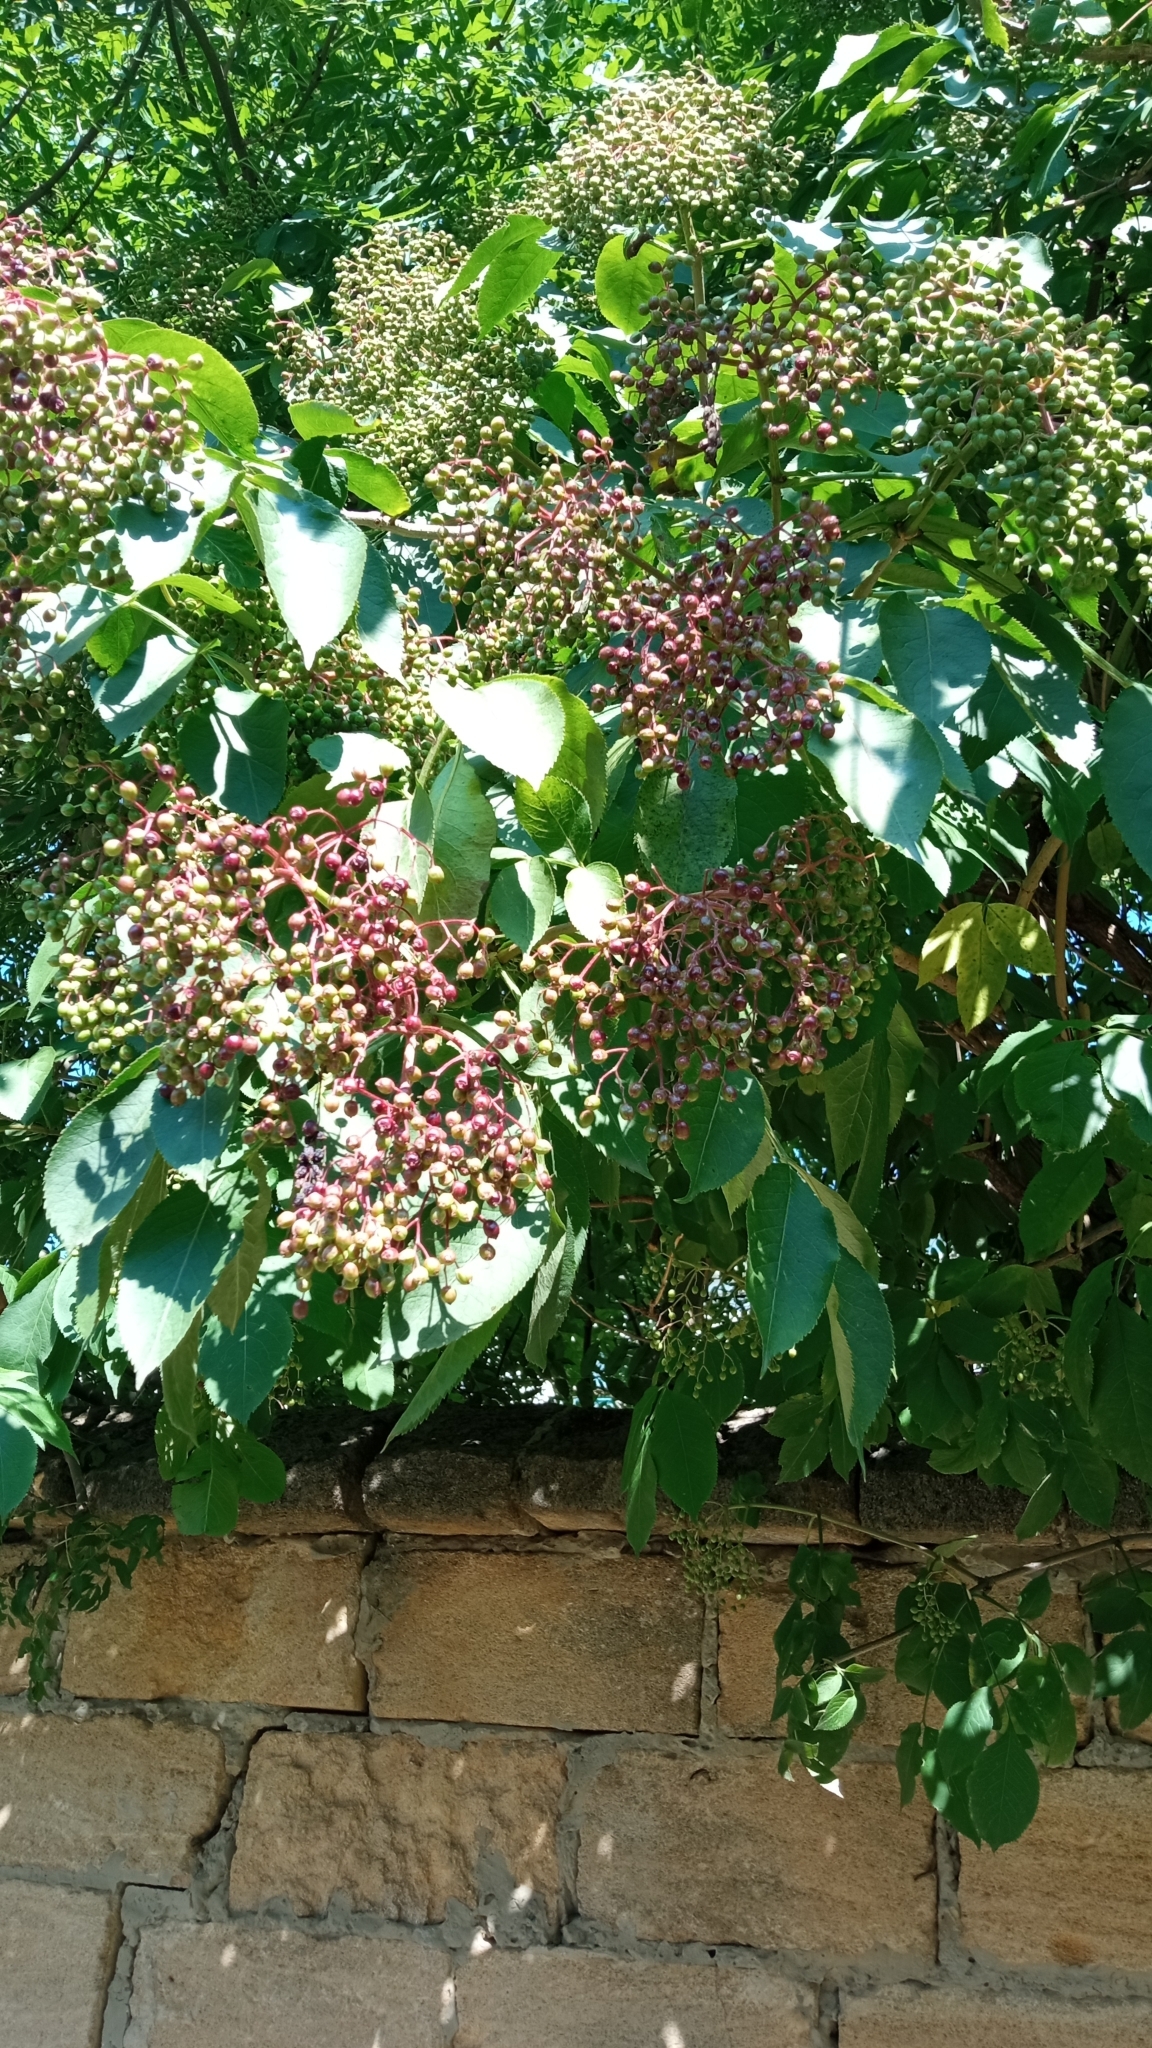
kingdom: Plantae
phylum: Tracheophyta
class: Magnoliopsida
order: Dipsacales
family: Viburnaceae
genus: Sambucus
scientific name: Sambucus nigra
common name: Elder
